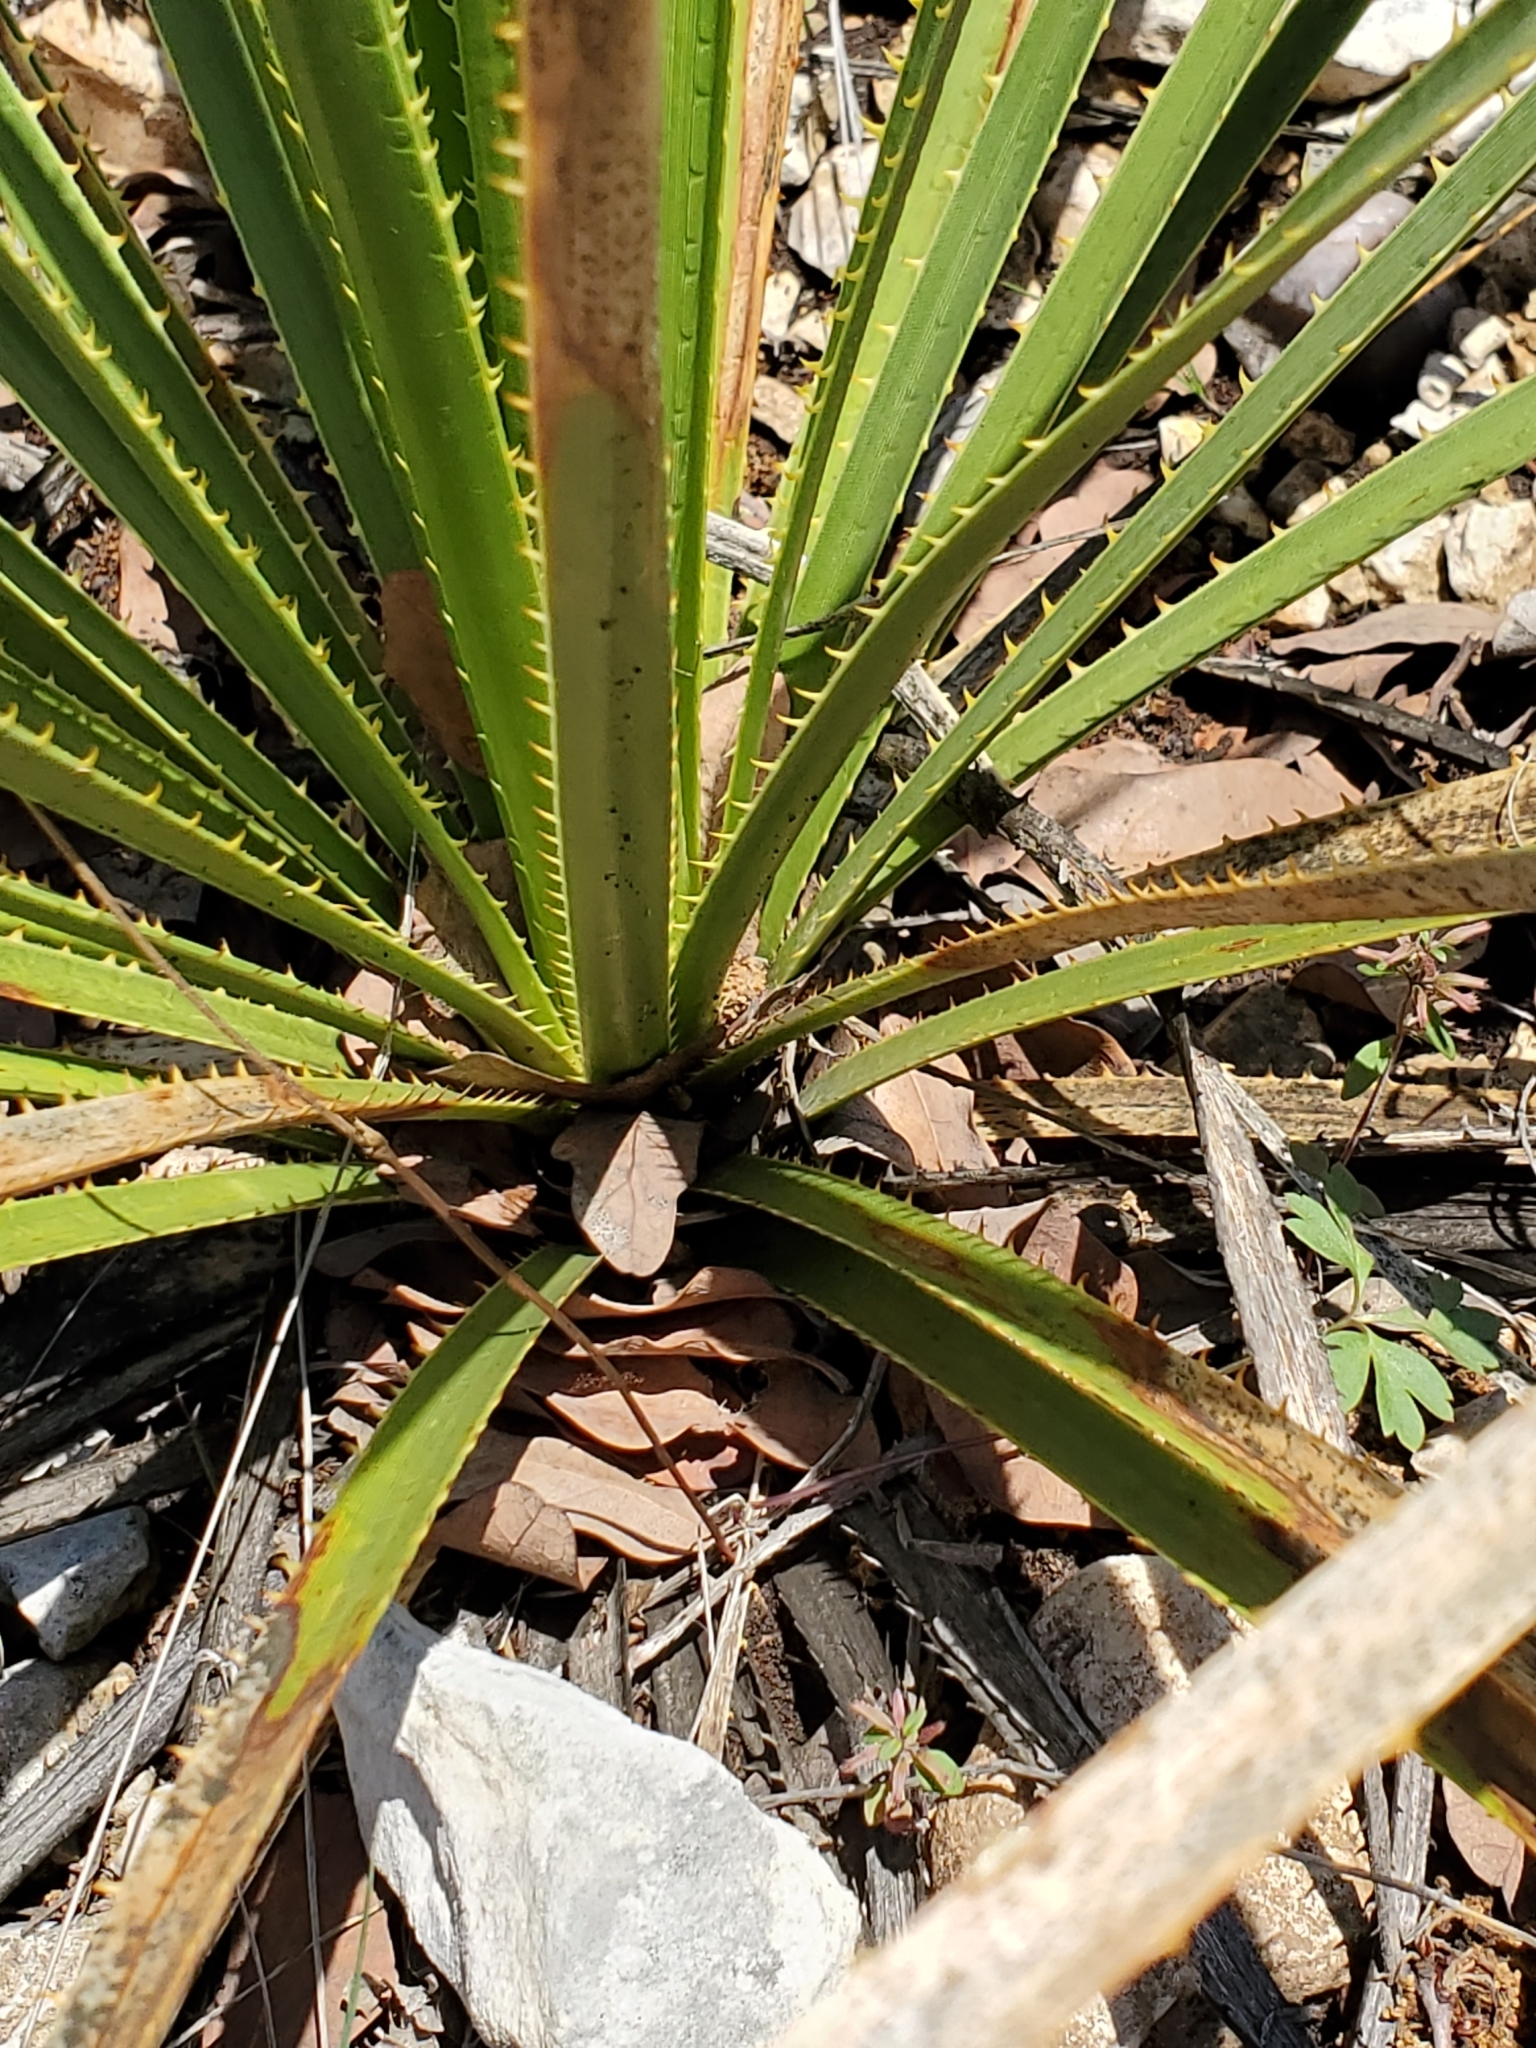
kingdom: Plantae
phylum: Tracheophyta
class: Magnoliopsida
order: Ranunculales
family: Ranunculaceae
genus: Anemone
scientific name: Anemone edwardsiana
